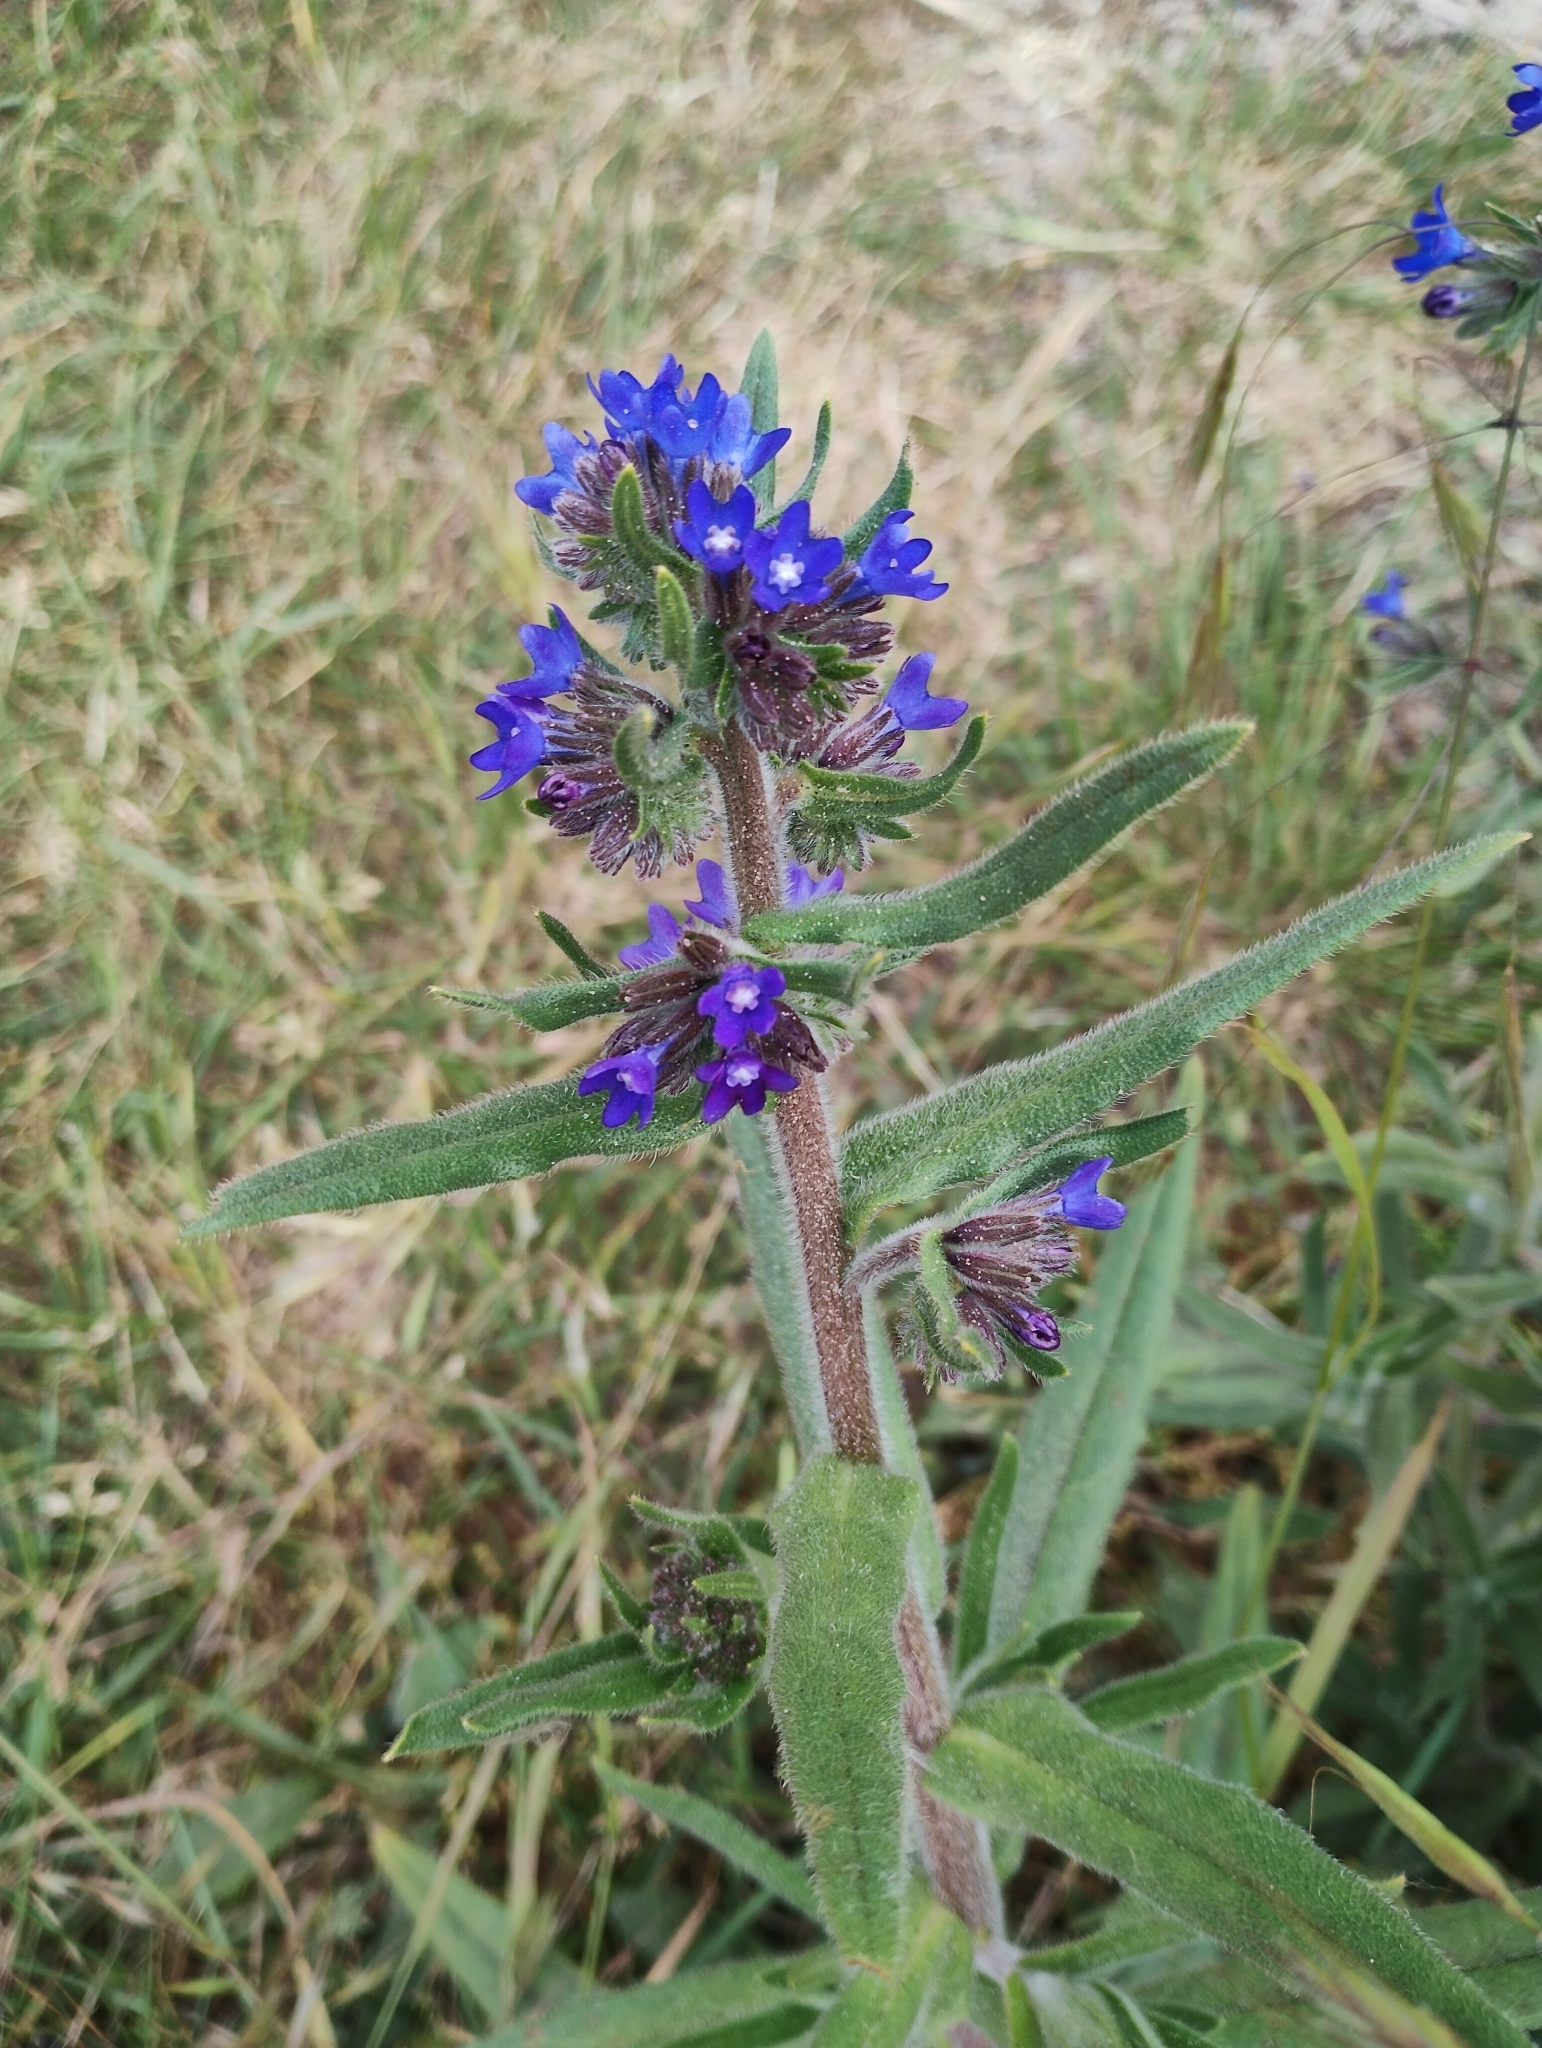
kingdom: Plantae
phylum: Tracheophyta
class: Magnoliopsida
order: Boraginales
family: Boraginaceae
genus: Anchusa
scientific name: Anchusa officinalis
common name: Alkanet
